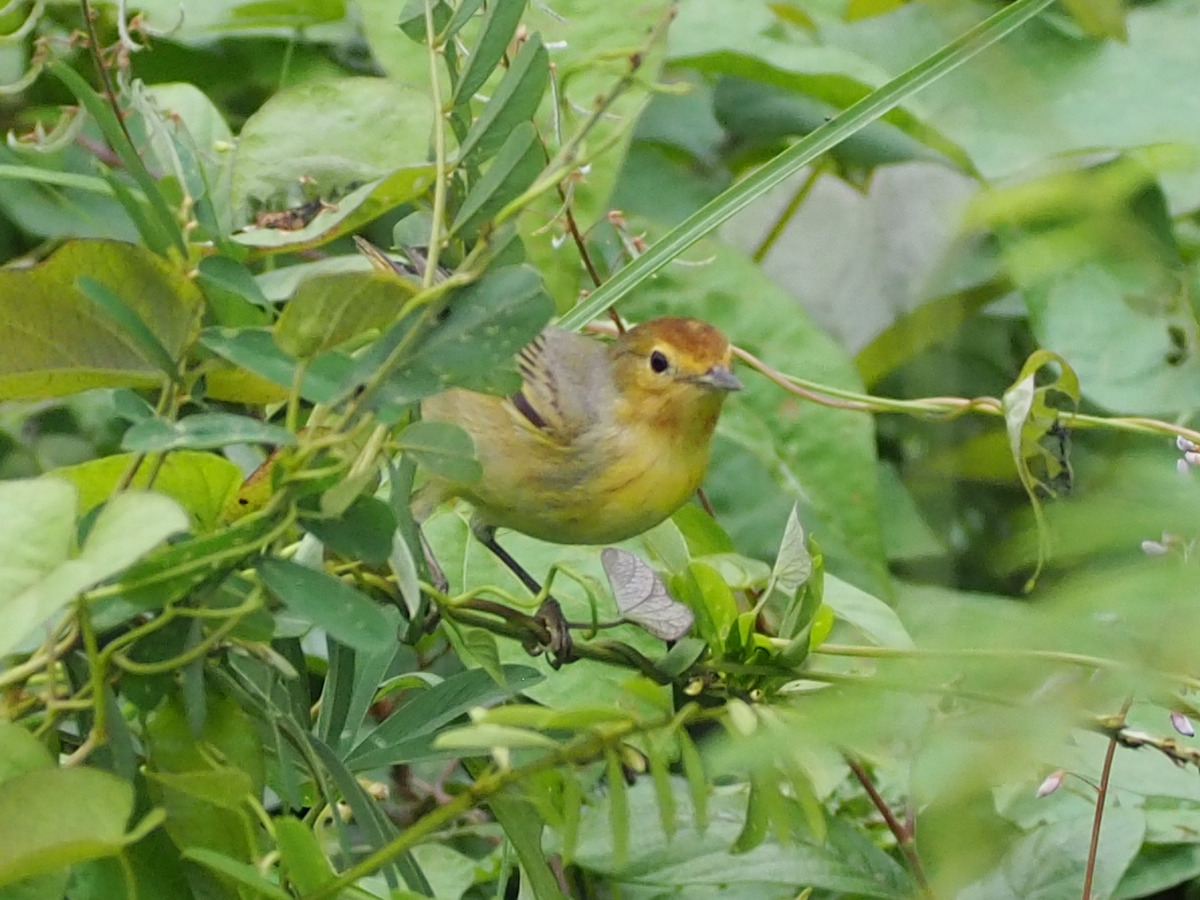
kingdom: Animalia
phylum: Chordata
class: Aves
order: Passeriformes
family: Parulidae
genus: Setophaga
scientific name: Setophaga petechia
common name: Yellow warbler
